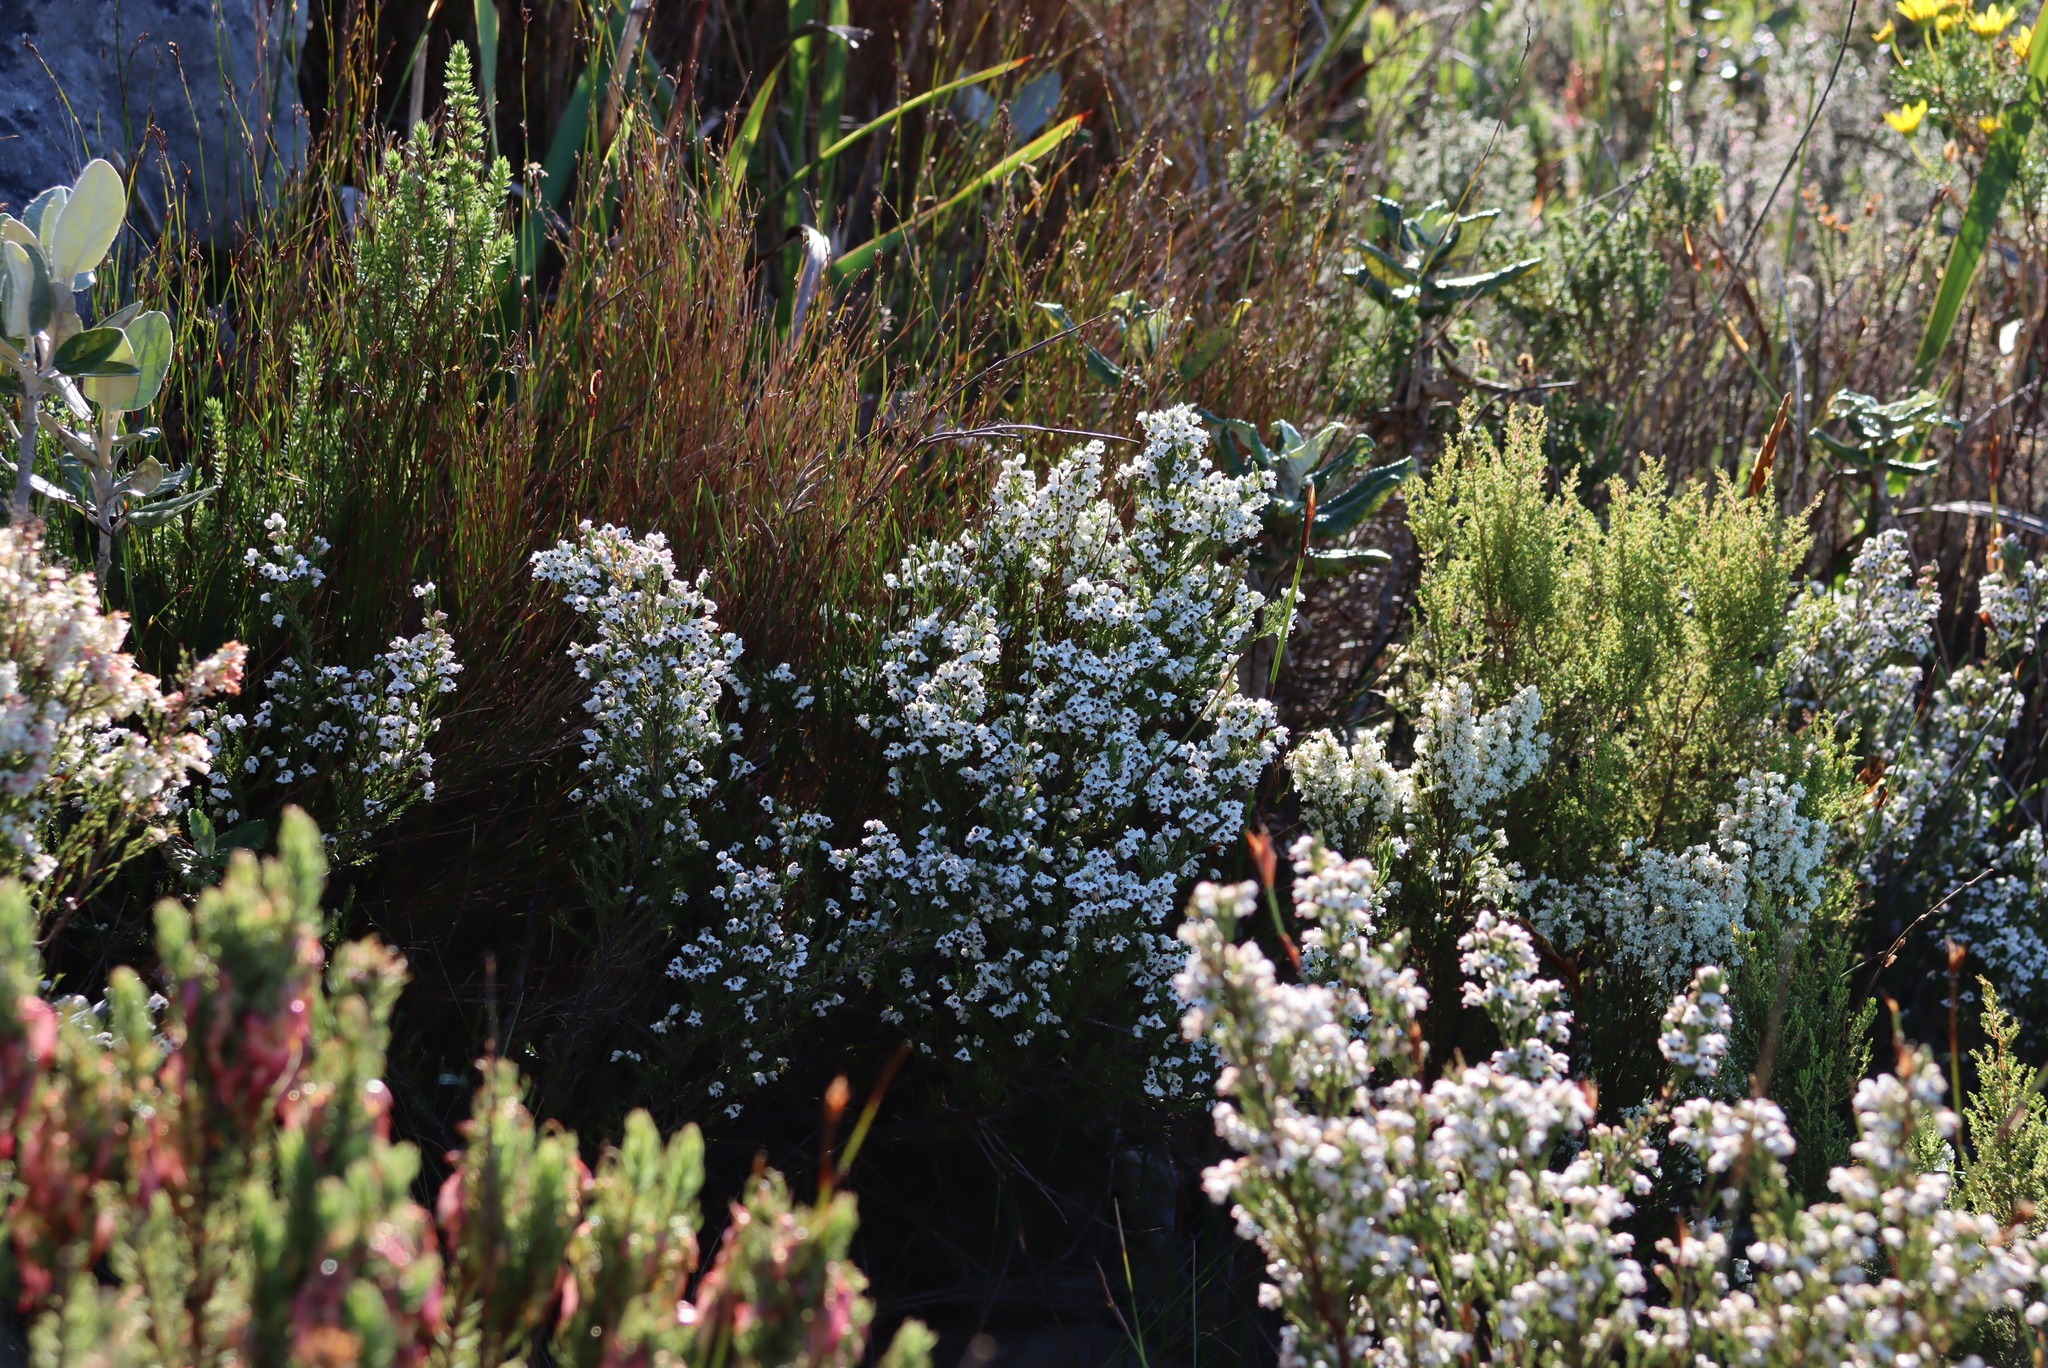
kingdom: Plantae
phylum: Tracheophyta
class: Magnoliopsida
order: Ericales
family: Ericaceae
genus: Erica
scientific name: Erica calycina
